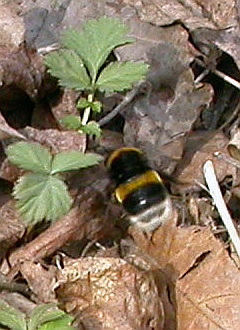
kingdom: Animalia
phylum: Arthropoda
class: Insecta
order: Hymenoptera
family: Apidae
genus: Bombus
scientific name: Bombus
